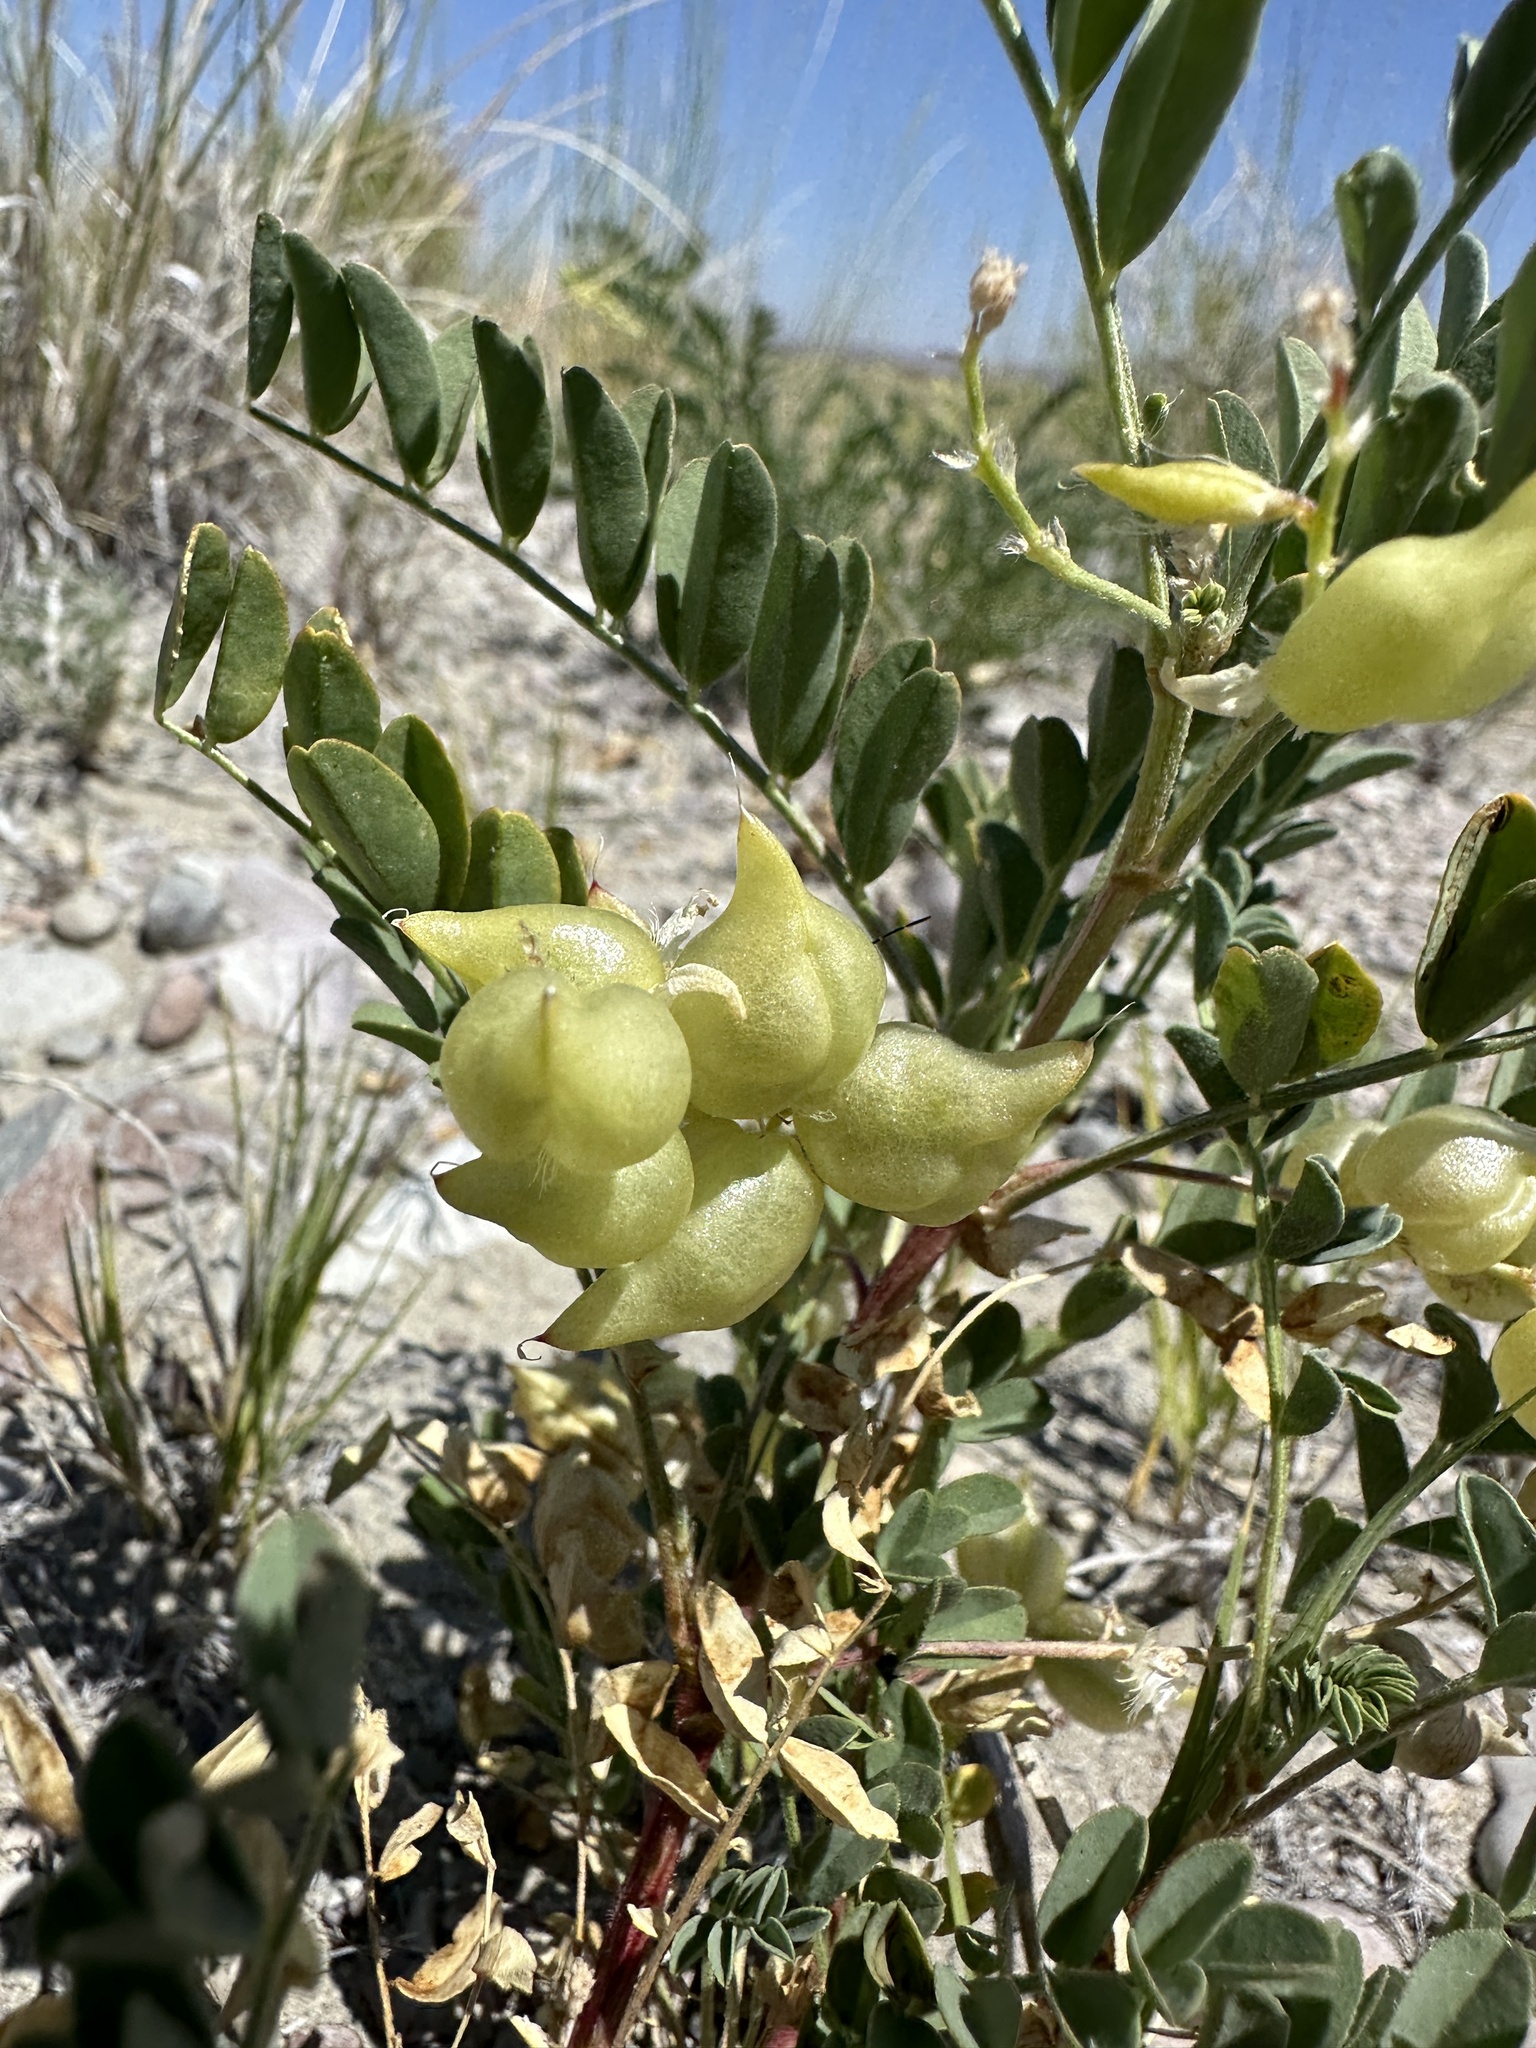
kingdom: Plantae
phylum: Tracheophyta
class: Magnoliopsida
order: Fabales
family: Fabaceae
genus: Astragalus
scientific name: Astragalus lentiginosus
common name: Freckled milkvetch
